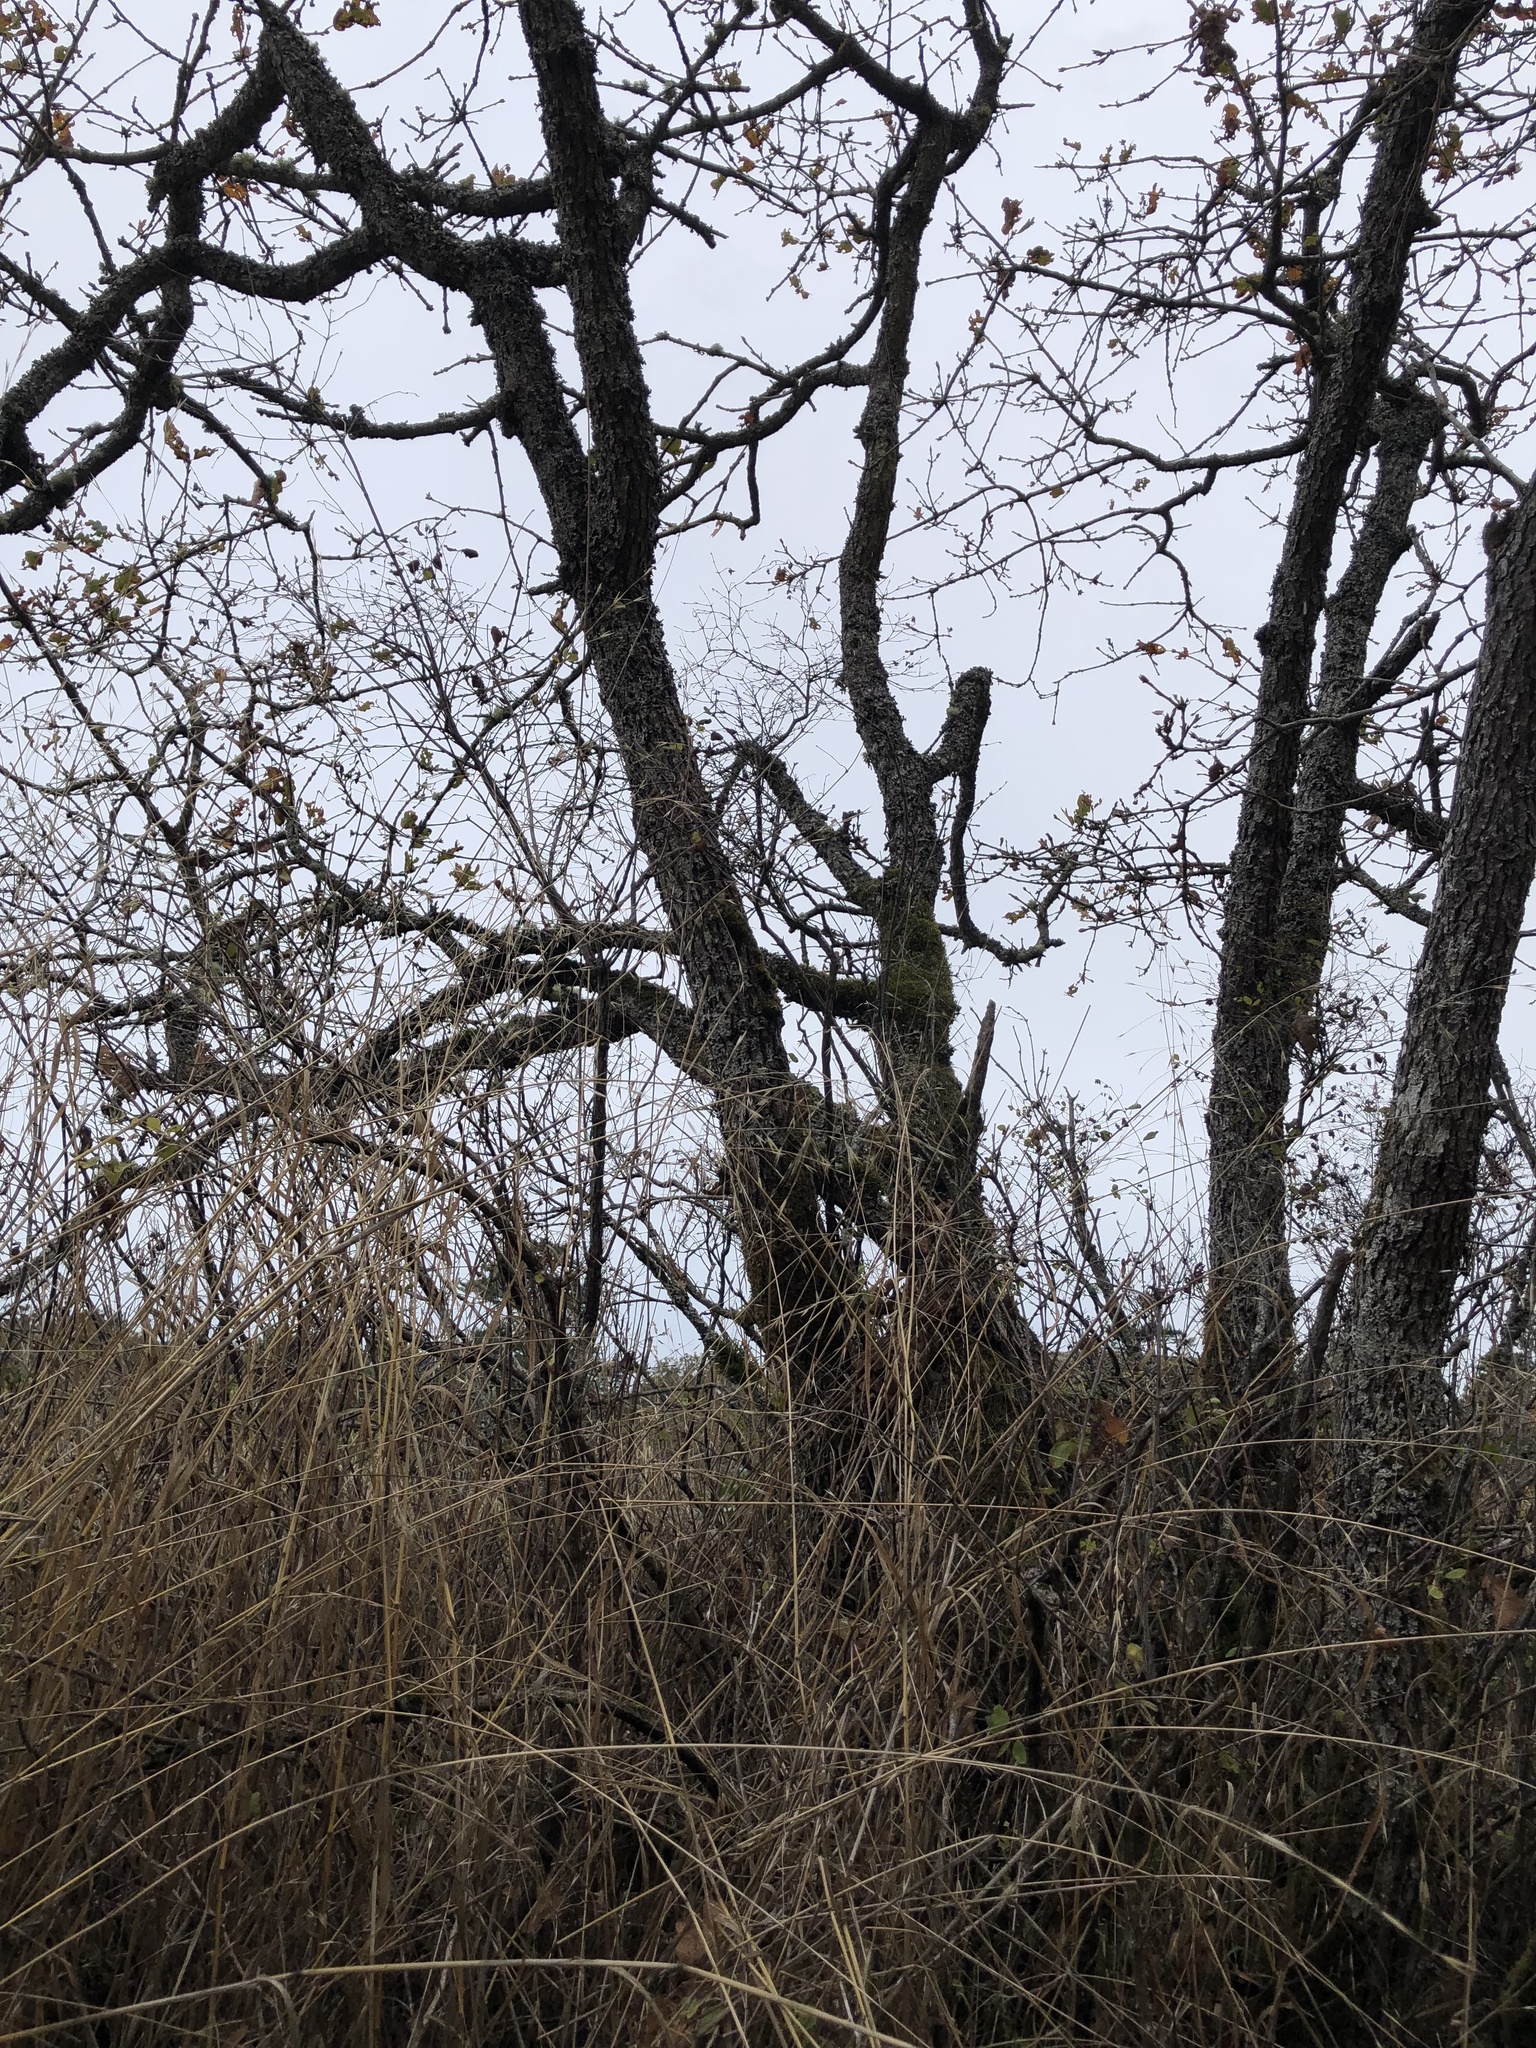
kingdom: Plantae
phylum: Tracheophyta
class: Magnoliopsida
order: Fagales
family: Fagaceae
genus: Quercus
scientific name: Quercus garryana
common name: Garry oak
